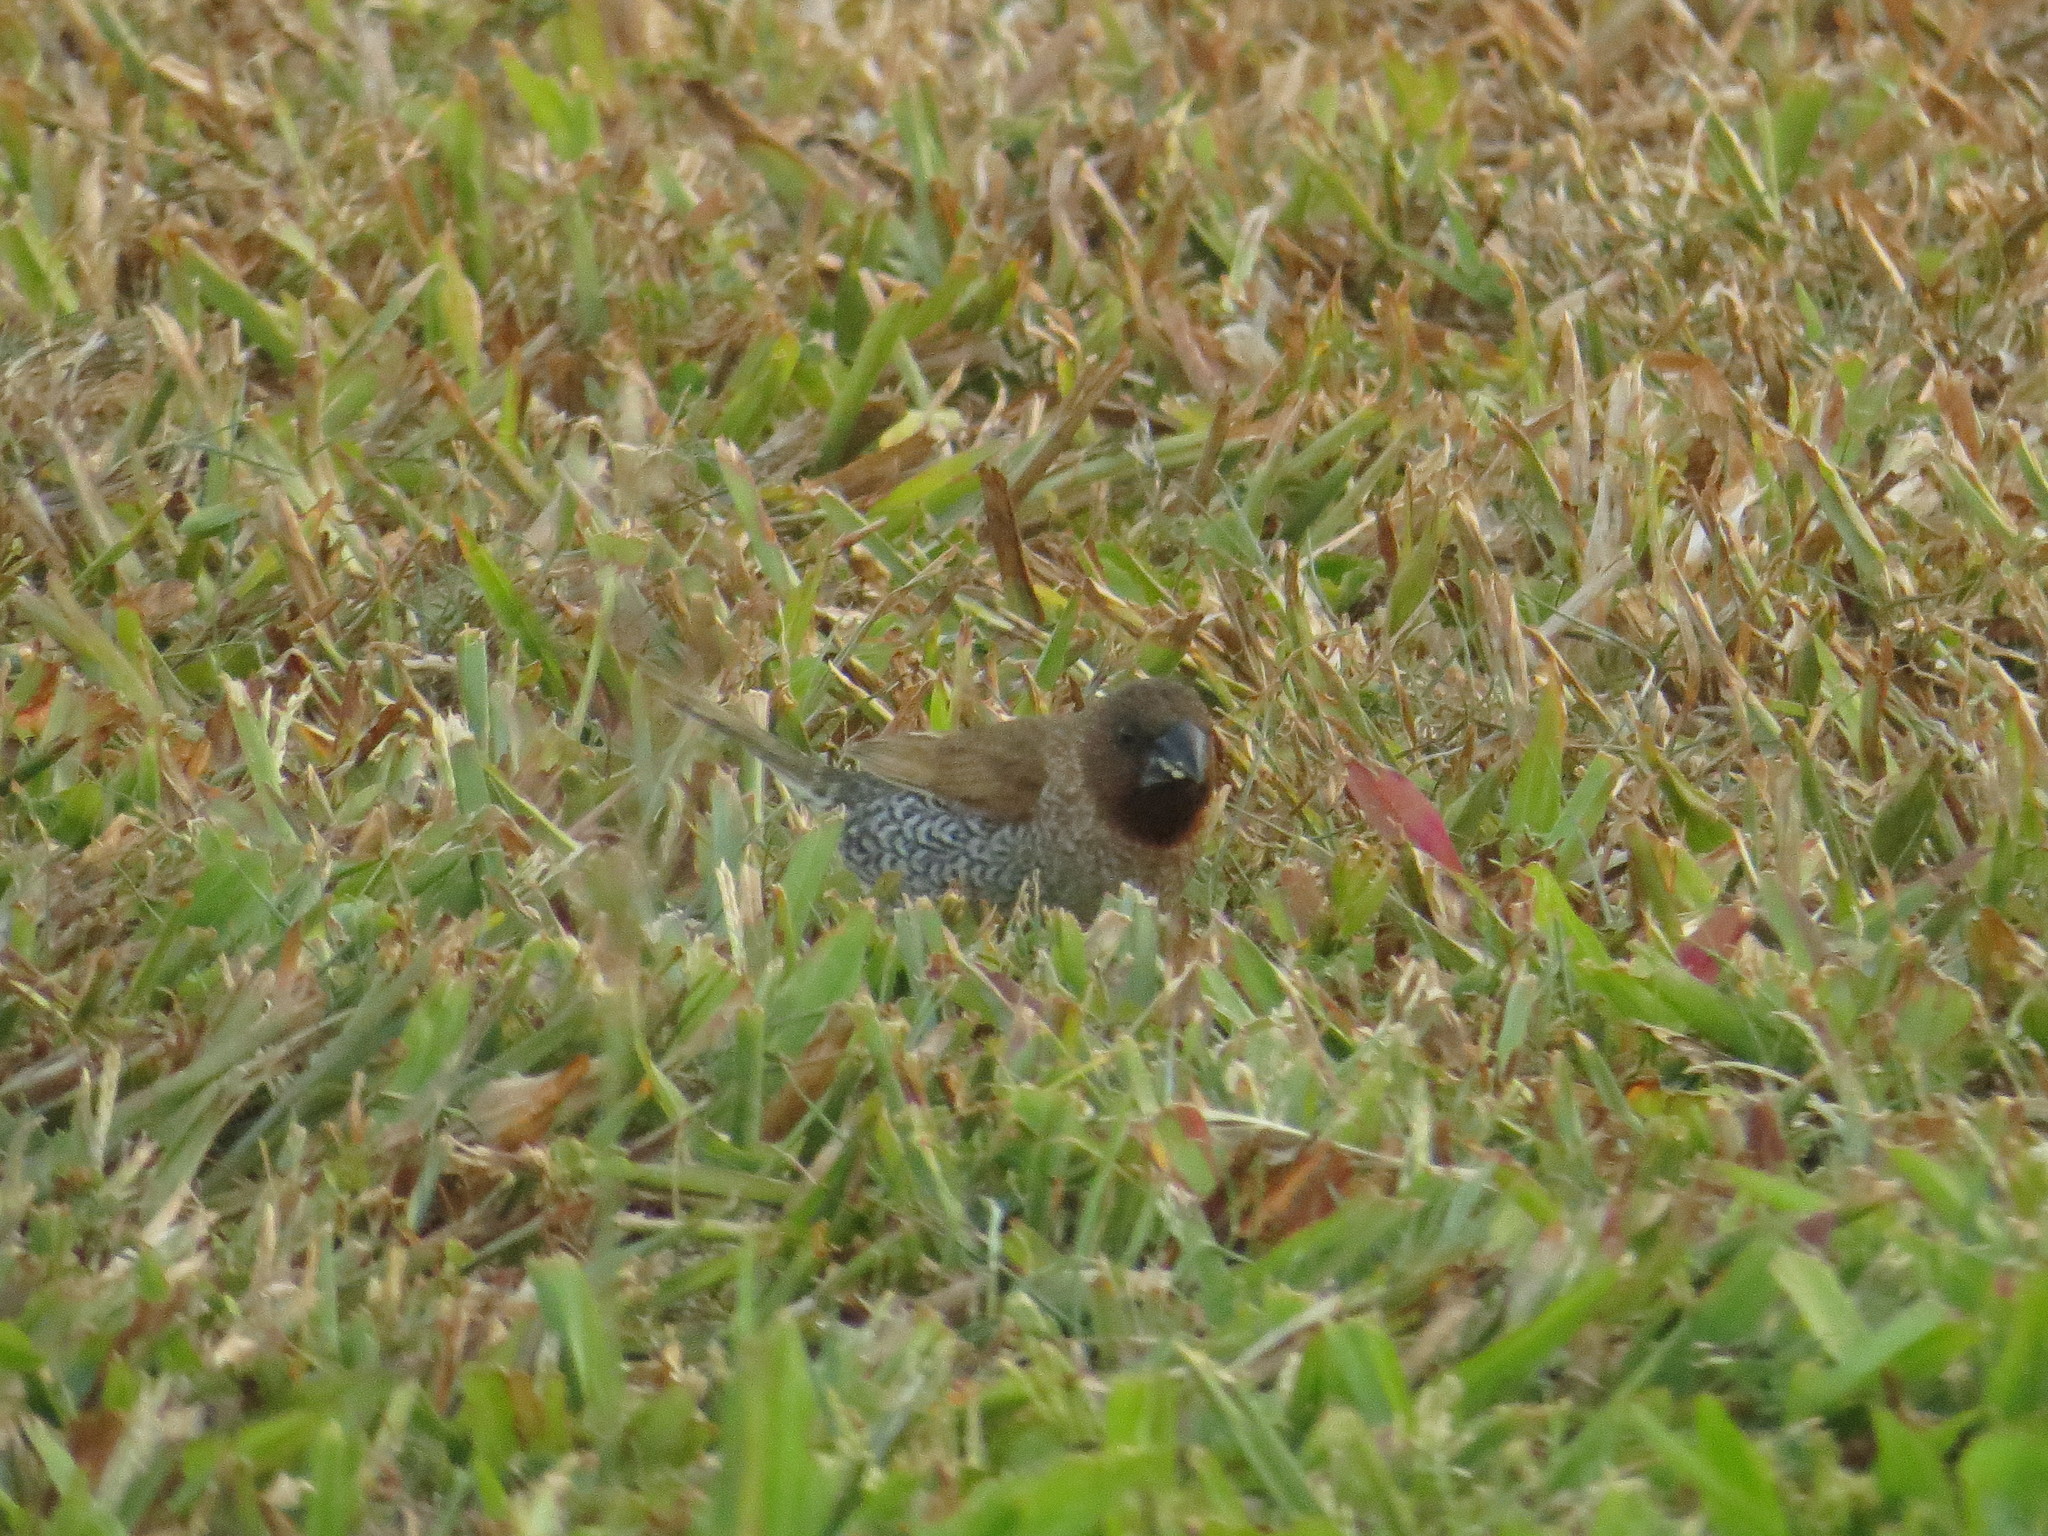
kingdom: Animalia
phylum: Chordata
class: Aves
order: Passeriformes
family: Estrildidae
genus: Lonchura
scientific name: Lonchura punctulata
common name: Scaly-breasted munia
